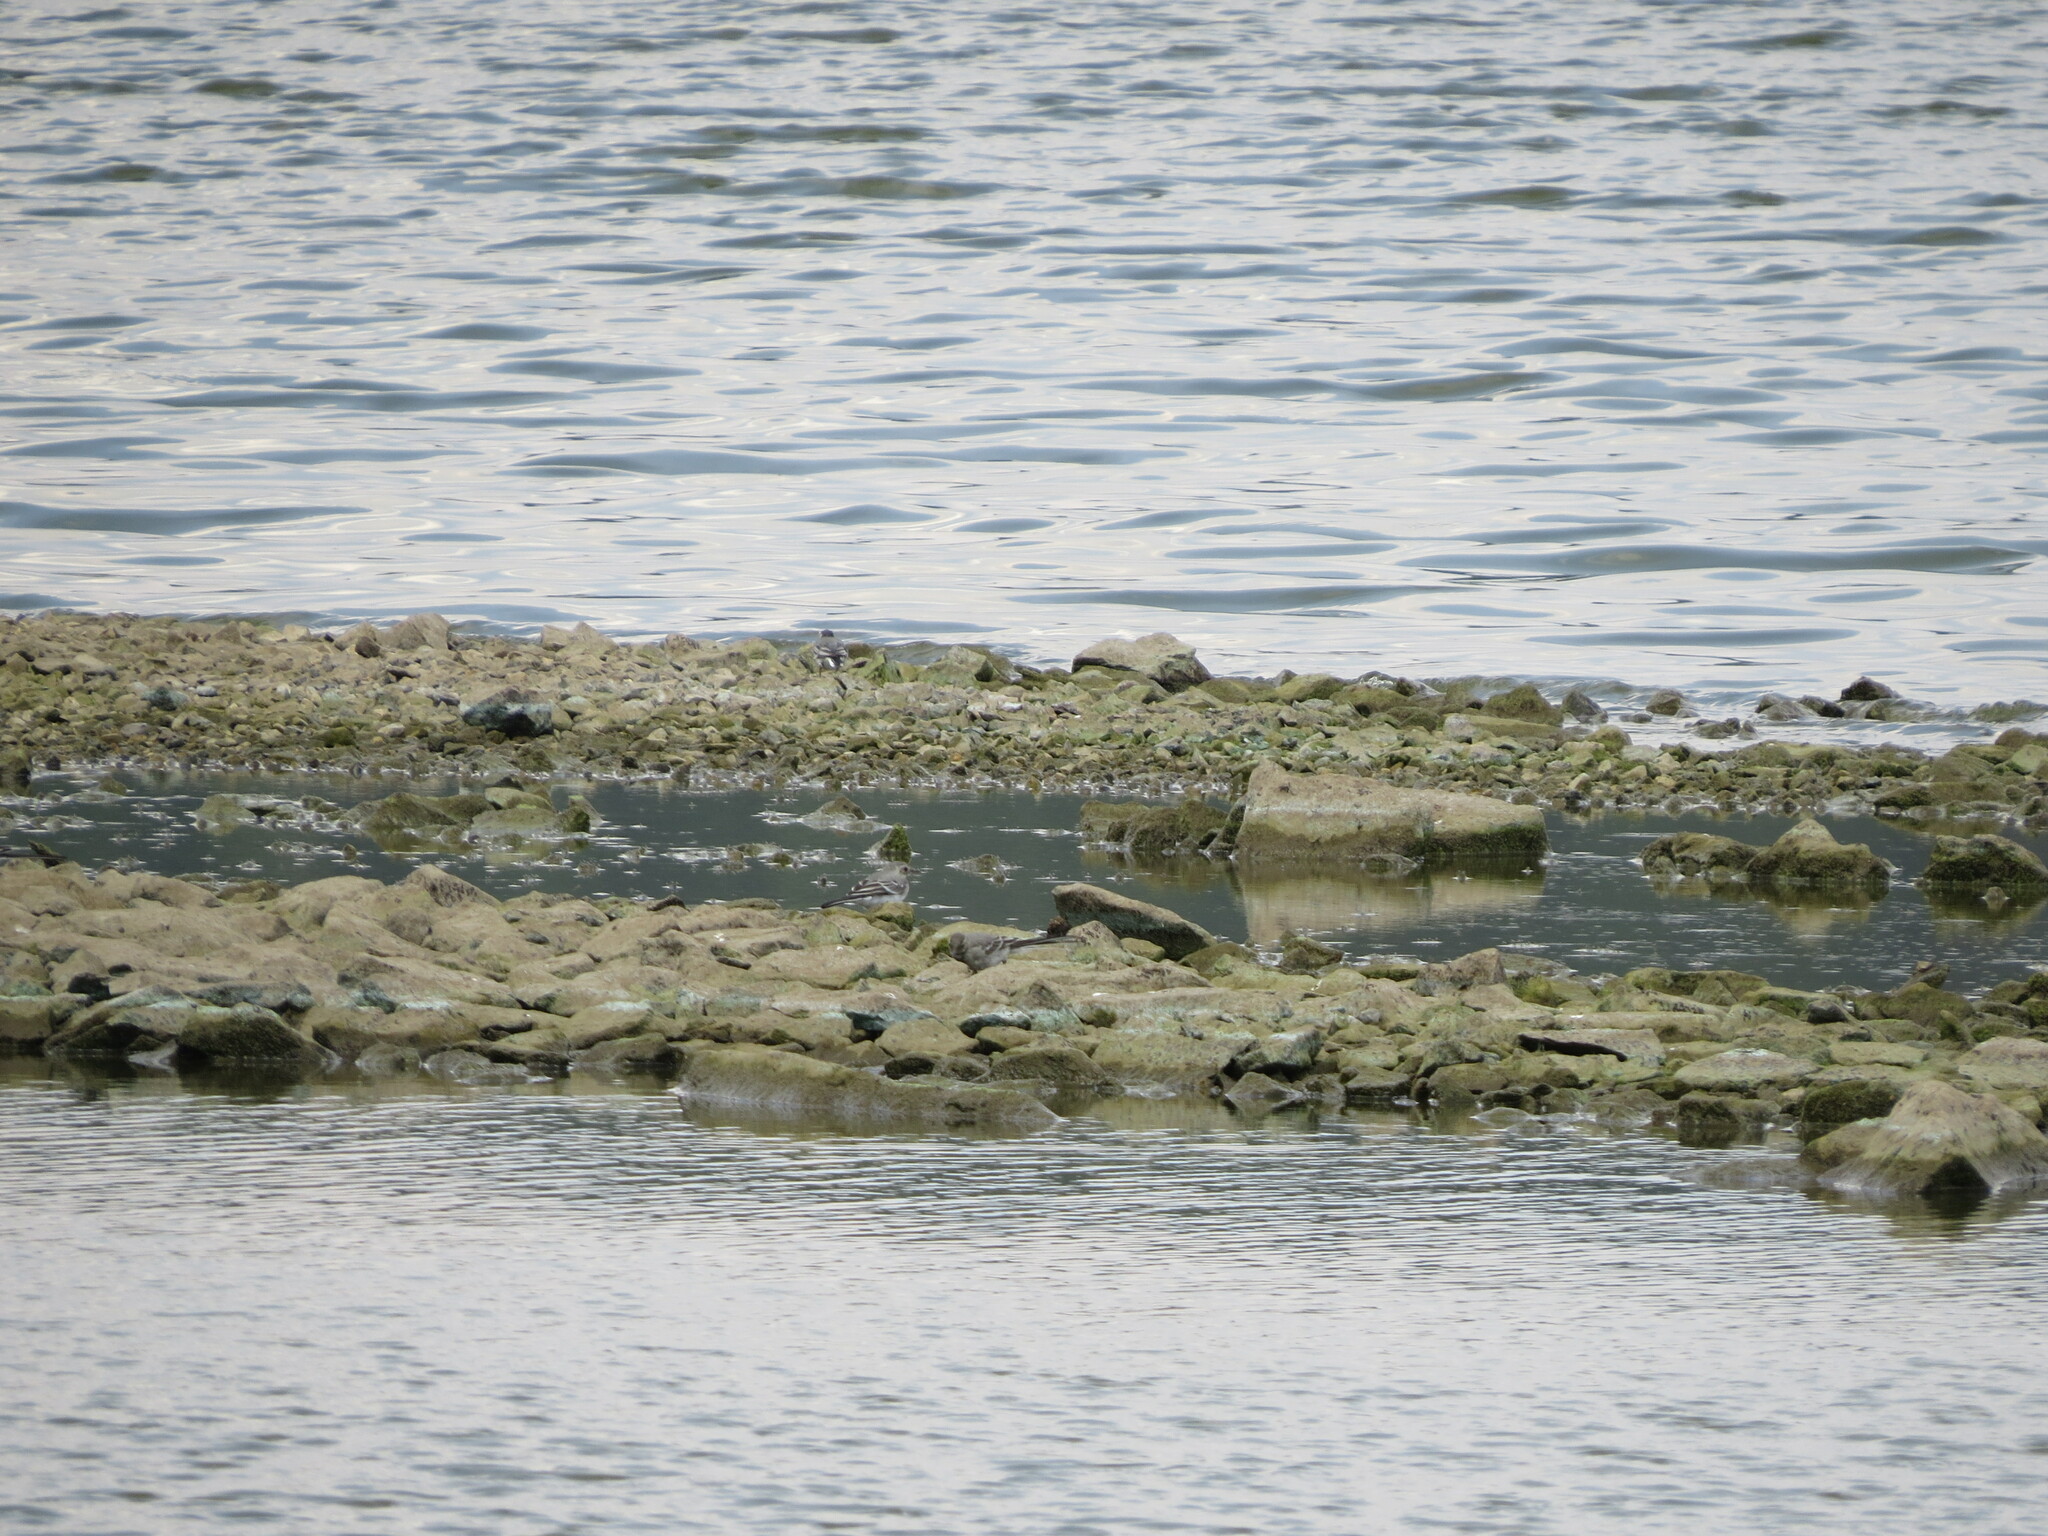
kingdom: Animalia
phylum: Chordata
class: Aves
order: Passeriformes
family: Motacillidae
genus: Motacilla
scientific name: Motacilla alba
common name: White wagtail
